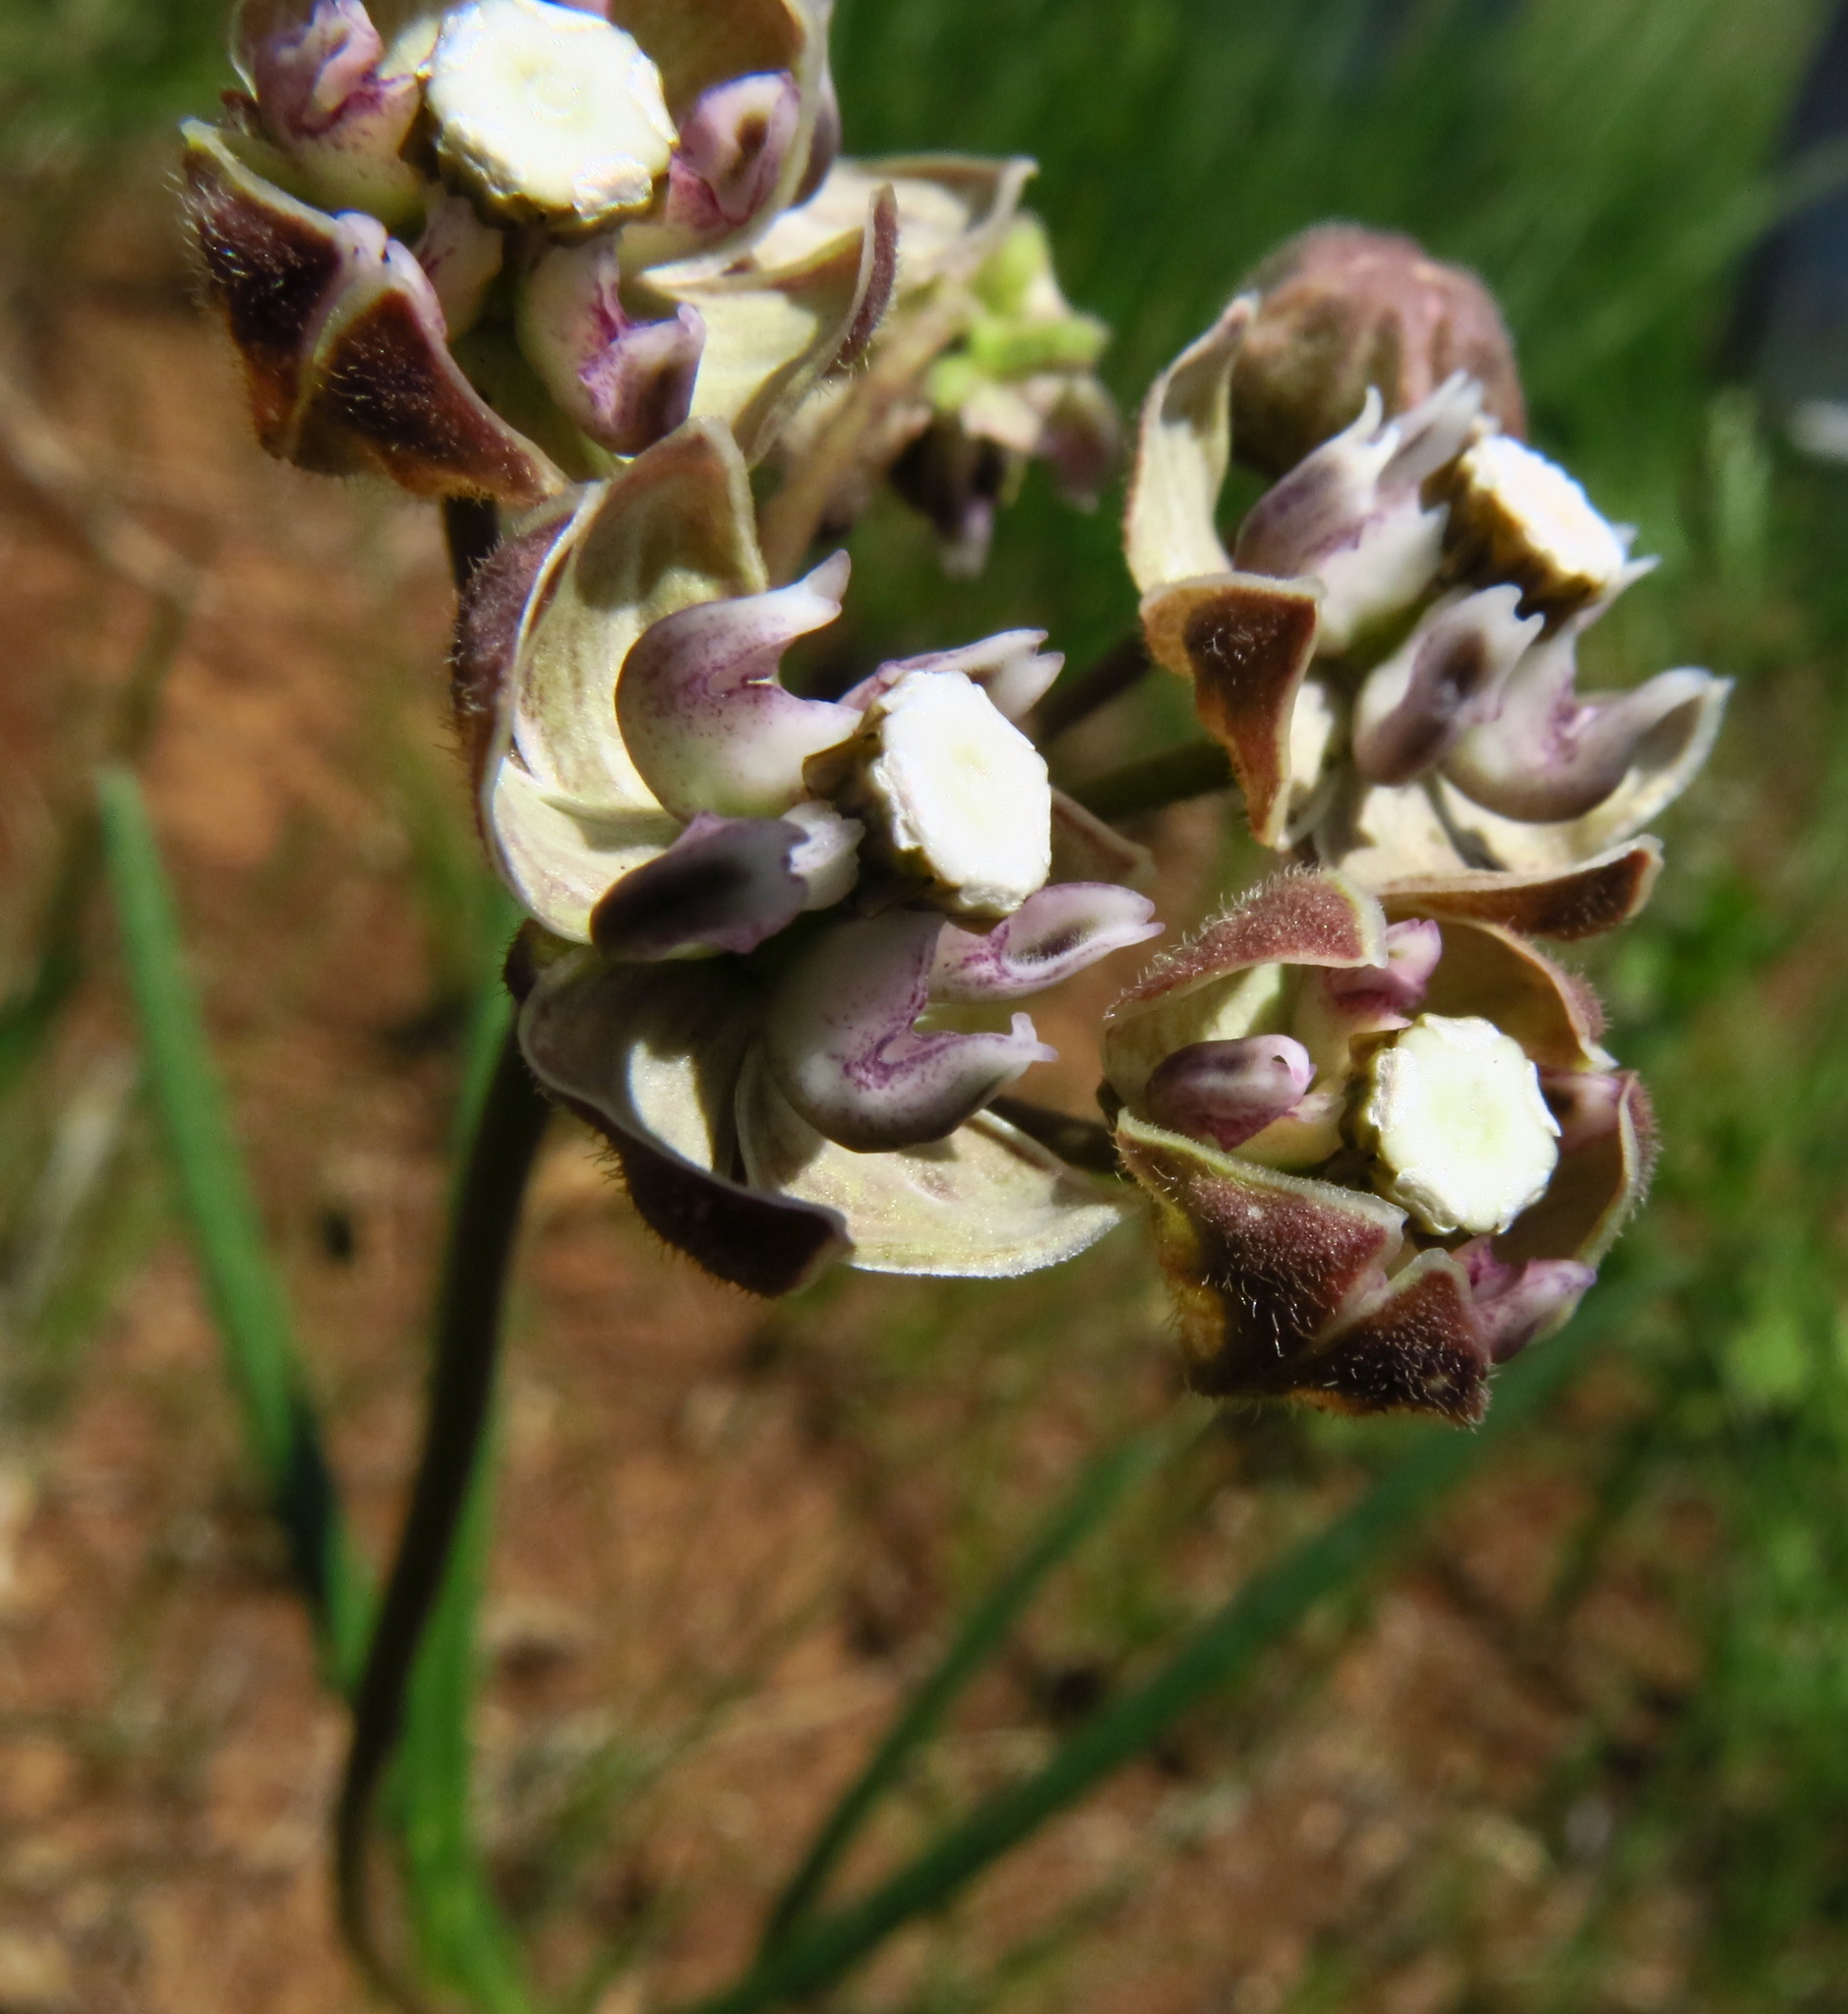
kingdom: Plantae
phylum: Tracheophyta
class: Magnoliopsida
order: Gentianales
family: Apocynaceae
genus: Asclepias
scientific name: Asclepias cucullata
